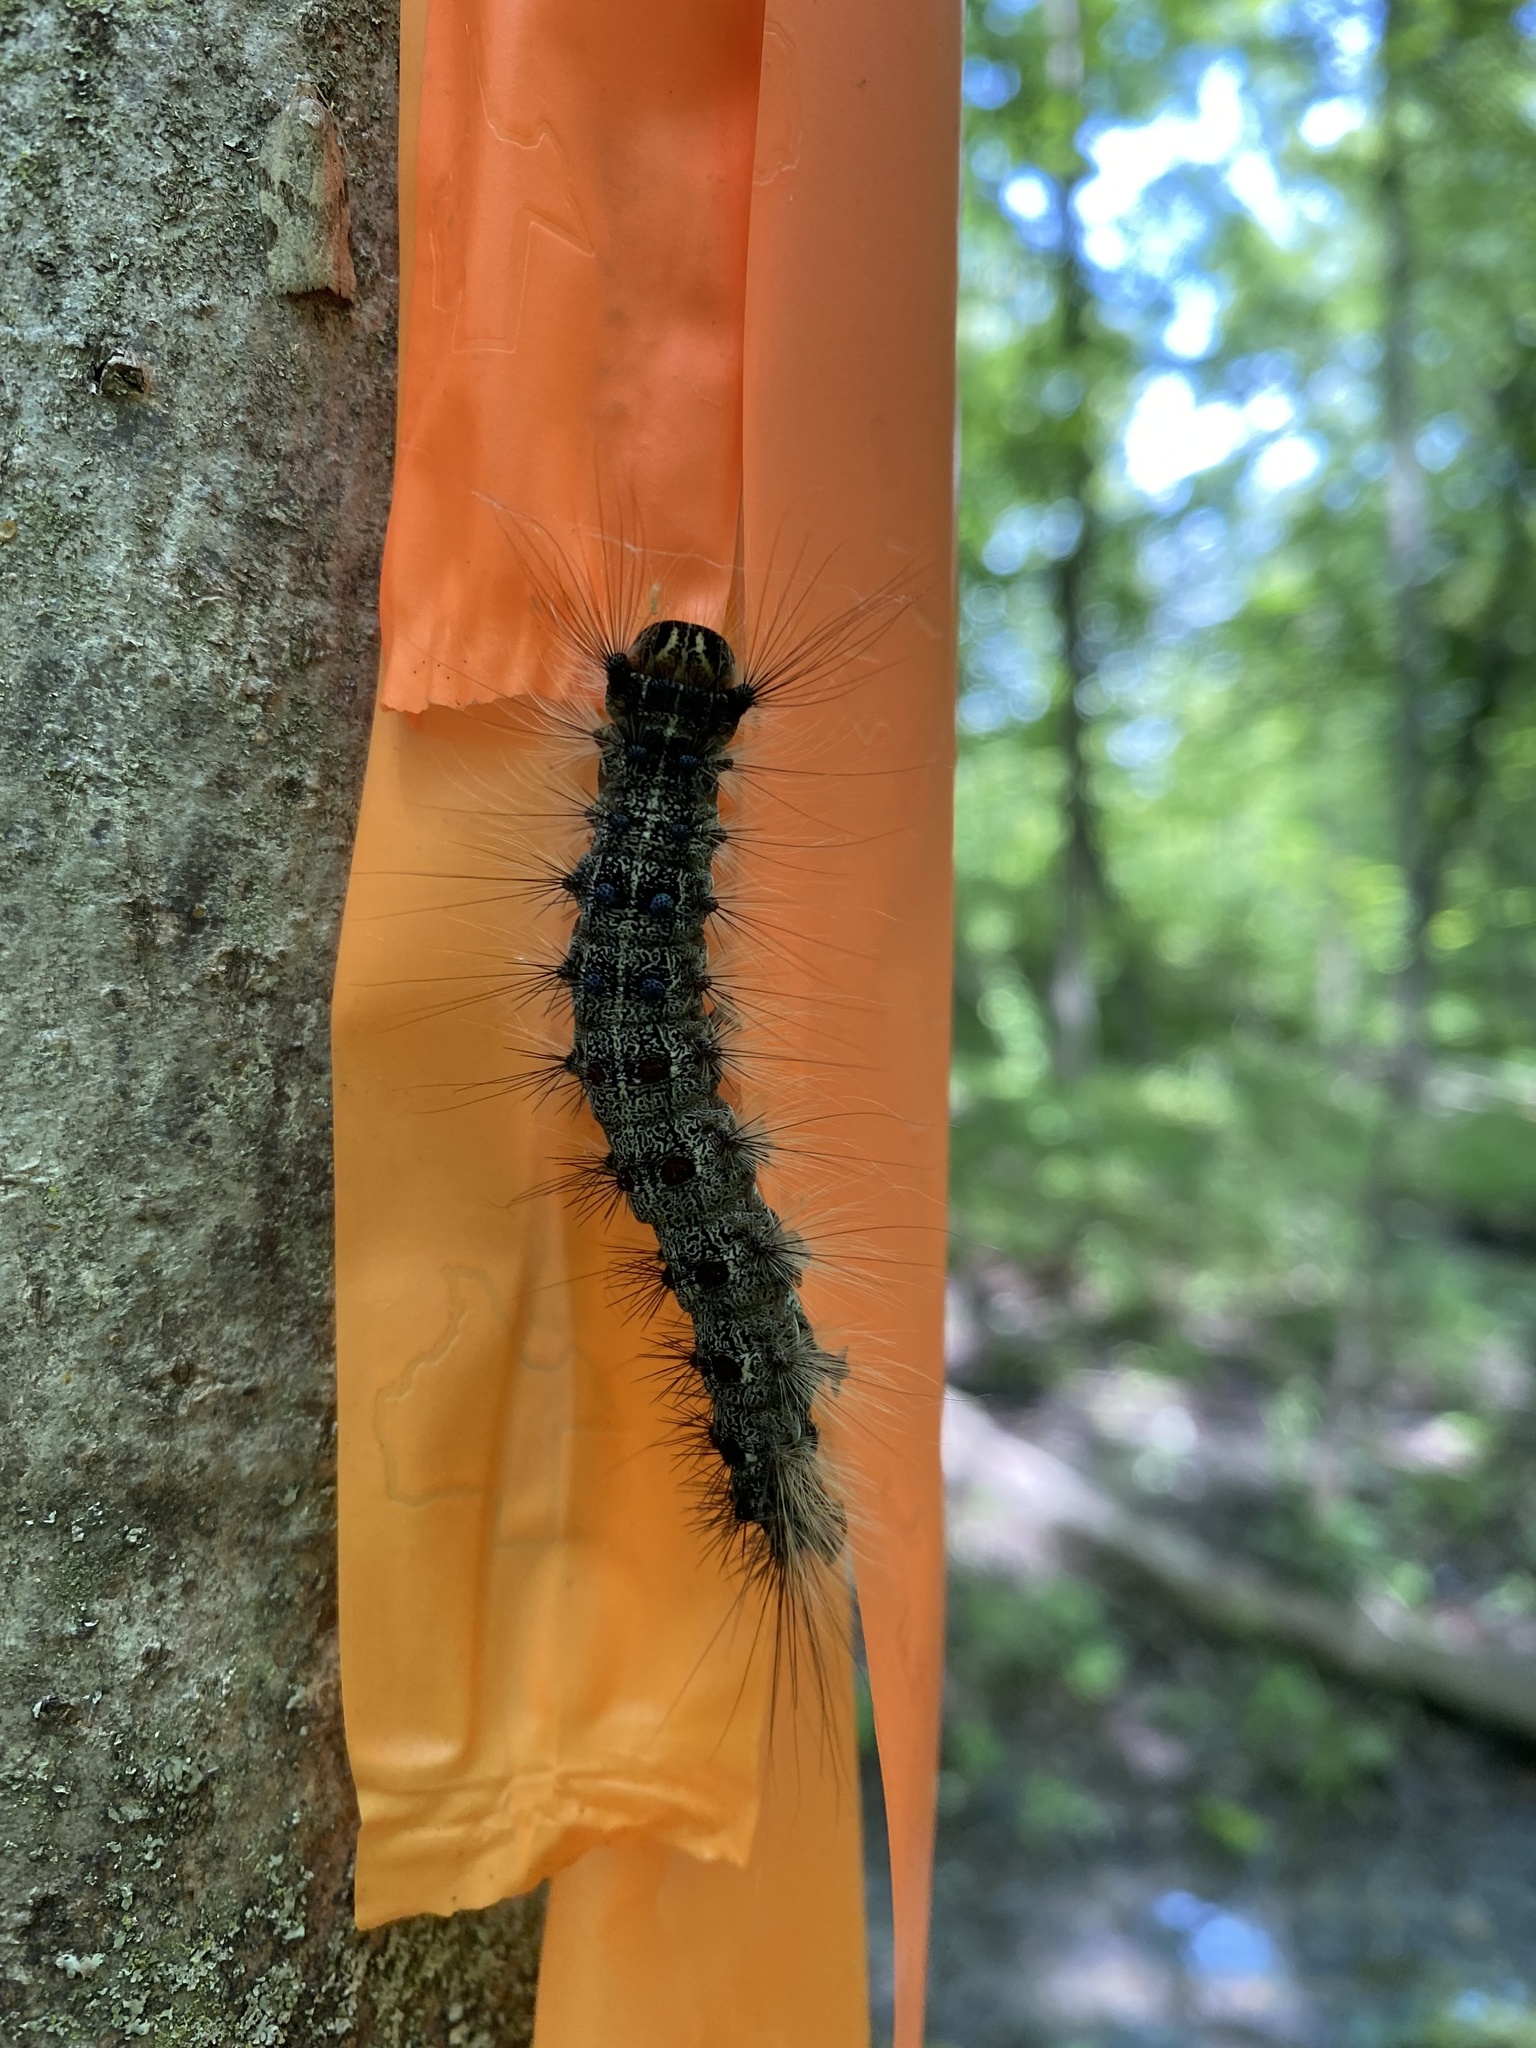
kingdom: Animalia
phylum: Arthropoda
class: Insecta
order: Lepidoptera
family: Erebidae
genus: Lymantria
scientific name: Lymantria dispar
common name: Gypsy moth
